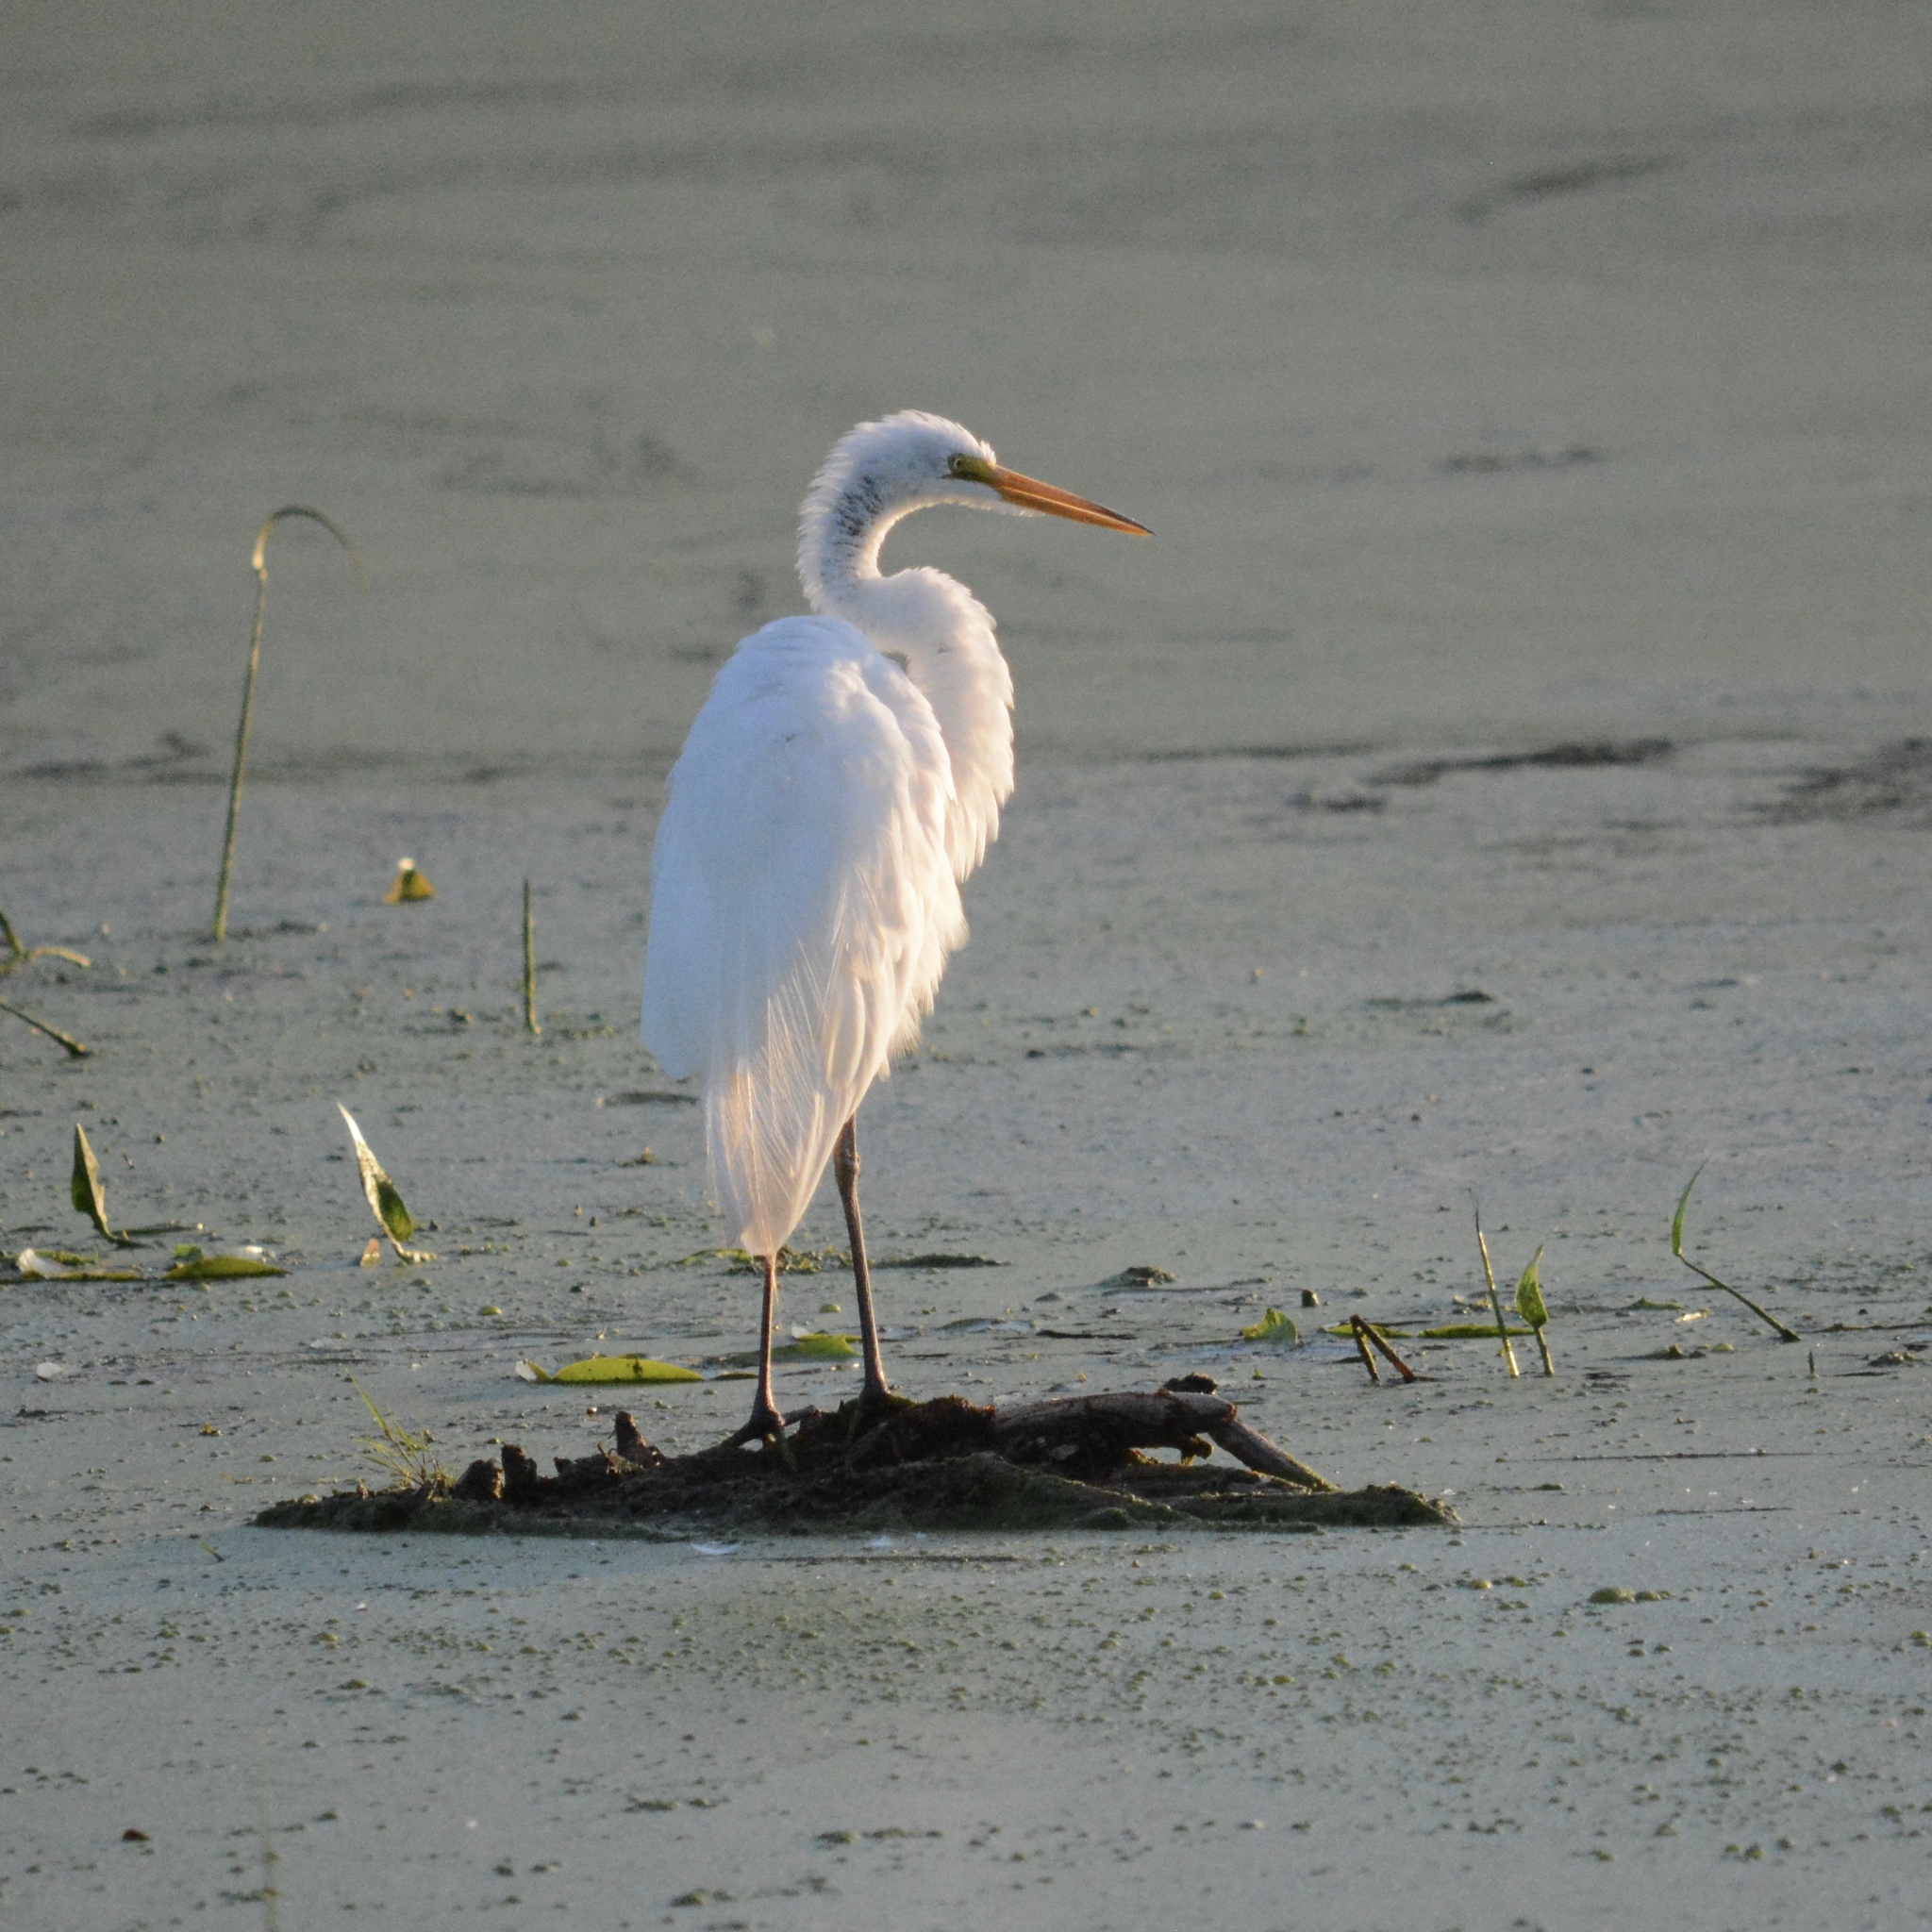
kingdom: Animalia
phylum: Chordata
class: Aves
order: Pelecaniformes
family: Ardeidae
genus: Ardea
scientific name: Ardea alba
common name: Great egret
